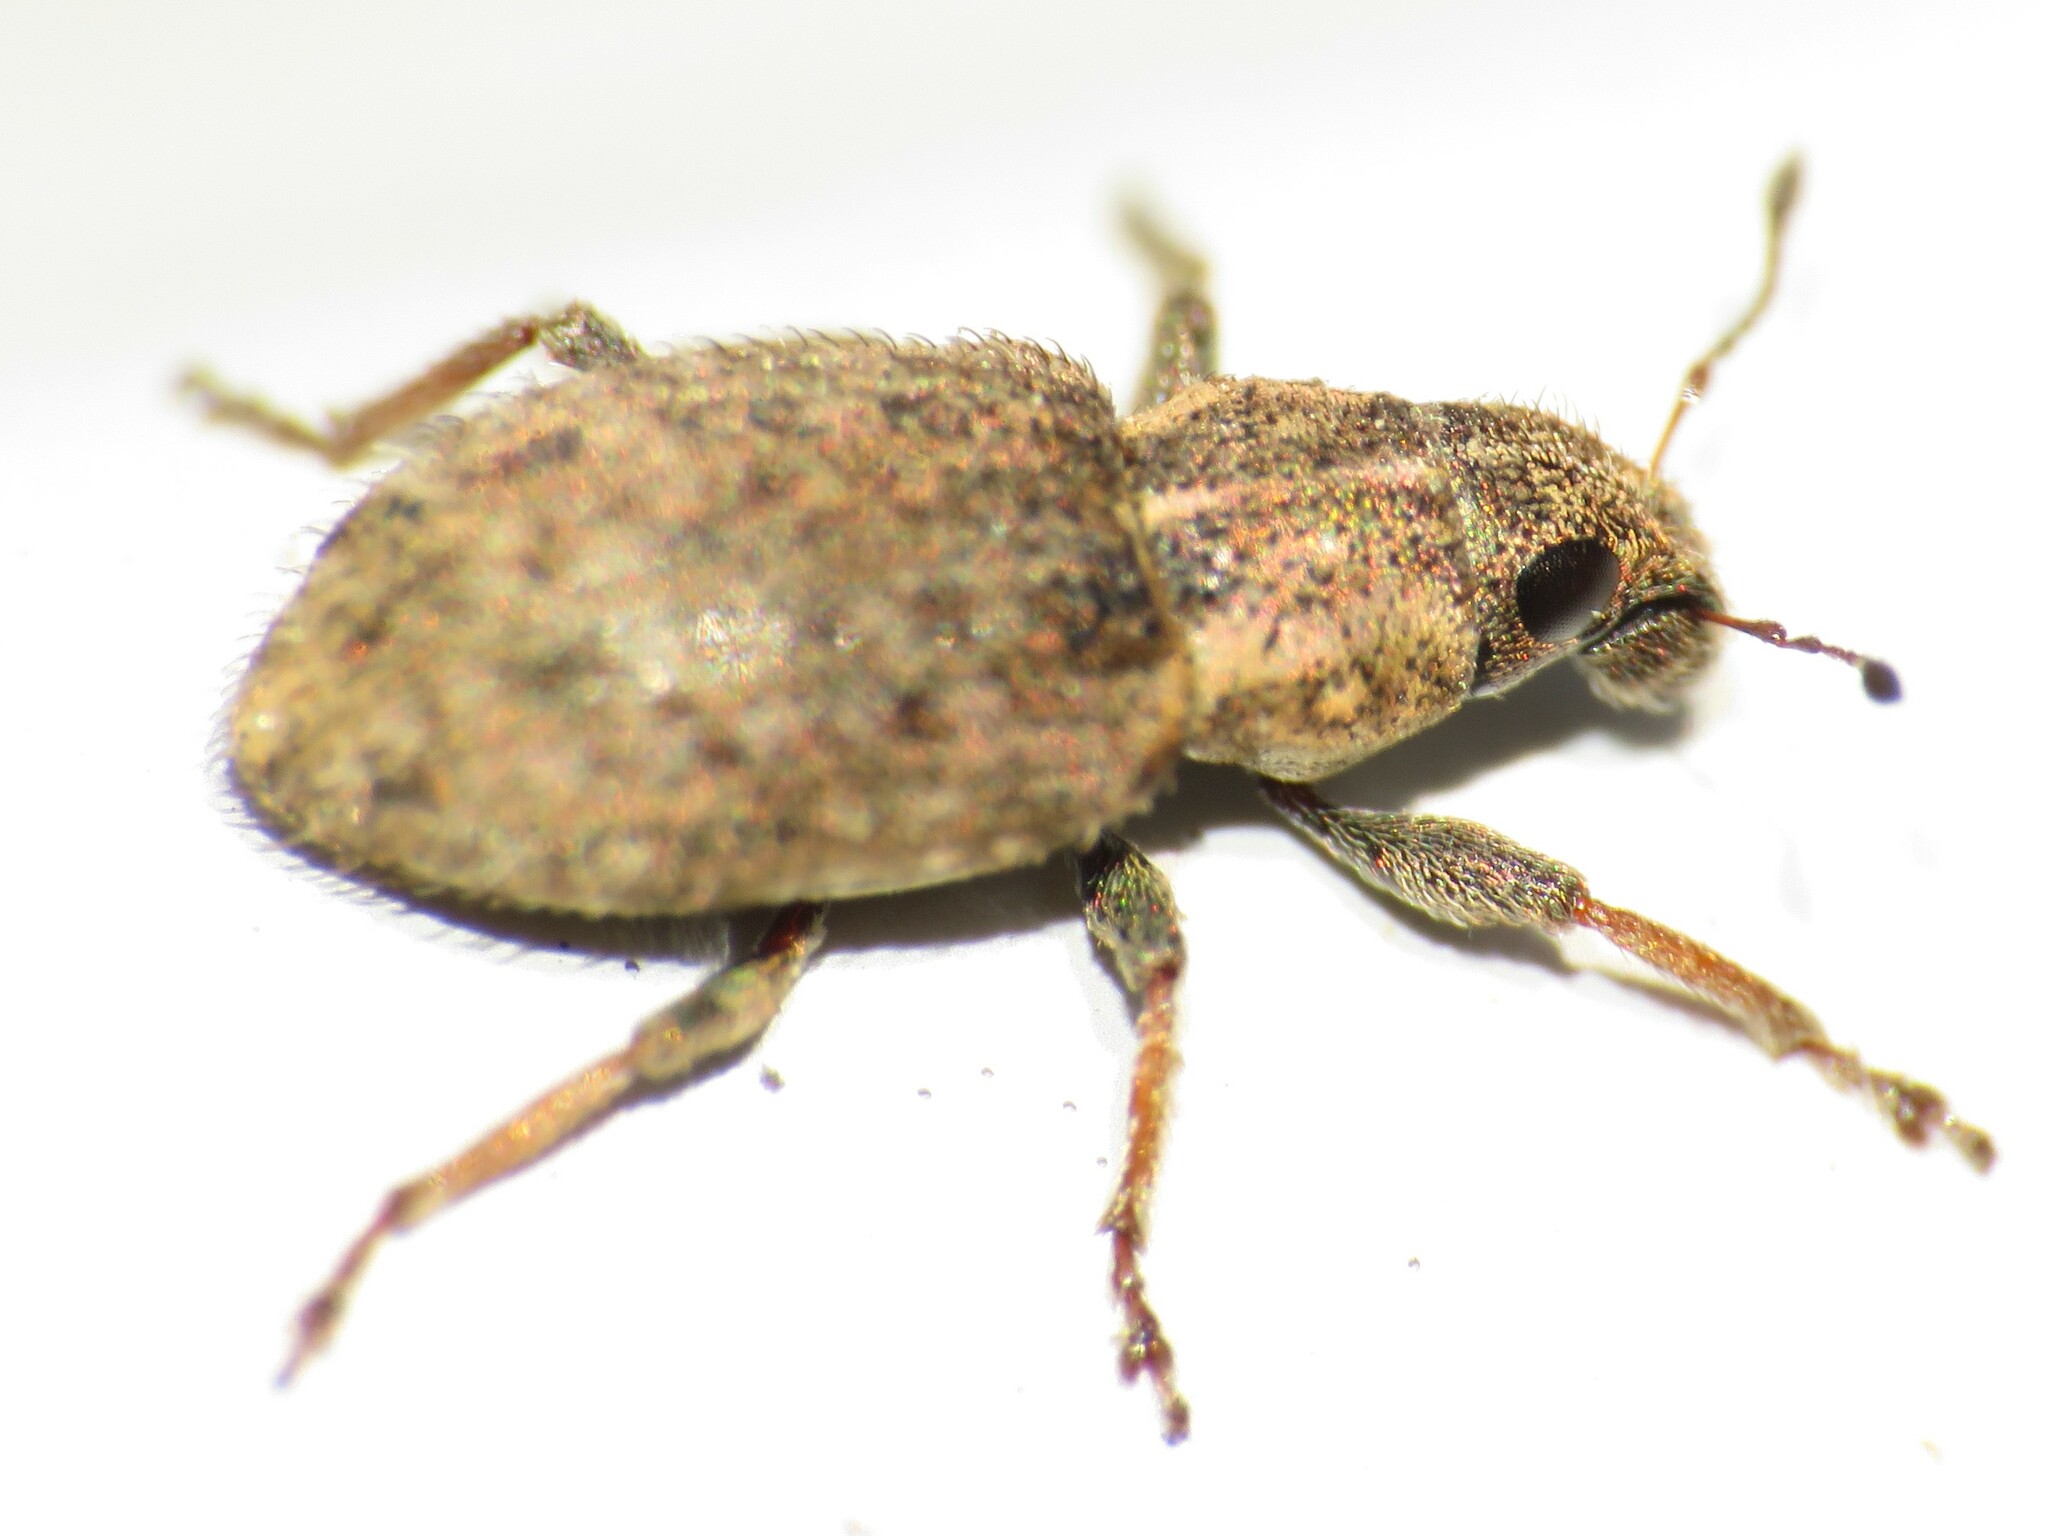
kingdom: Animalia
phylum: Arthropoda
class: Insecta
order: Coleoptera
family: Curculionidae
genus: Sitona
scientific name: Sitona hispidulus
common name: Clover weevil
